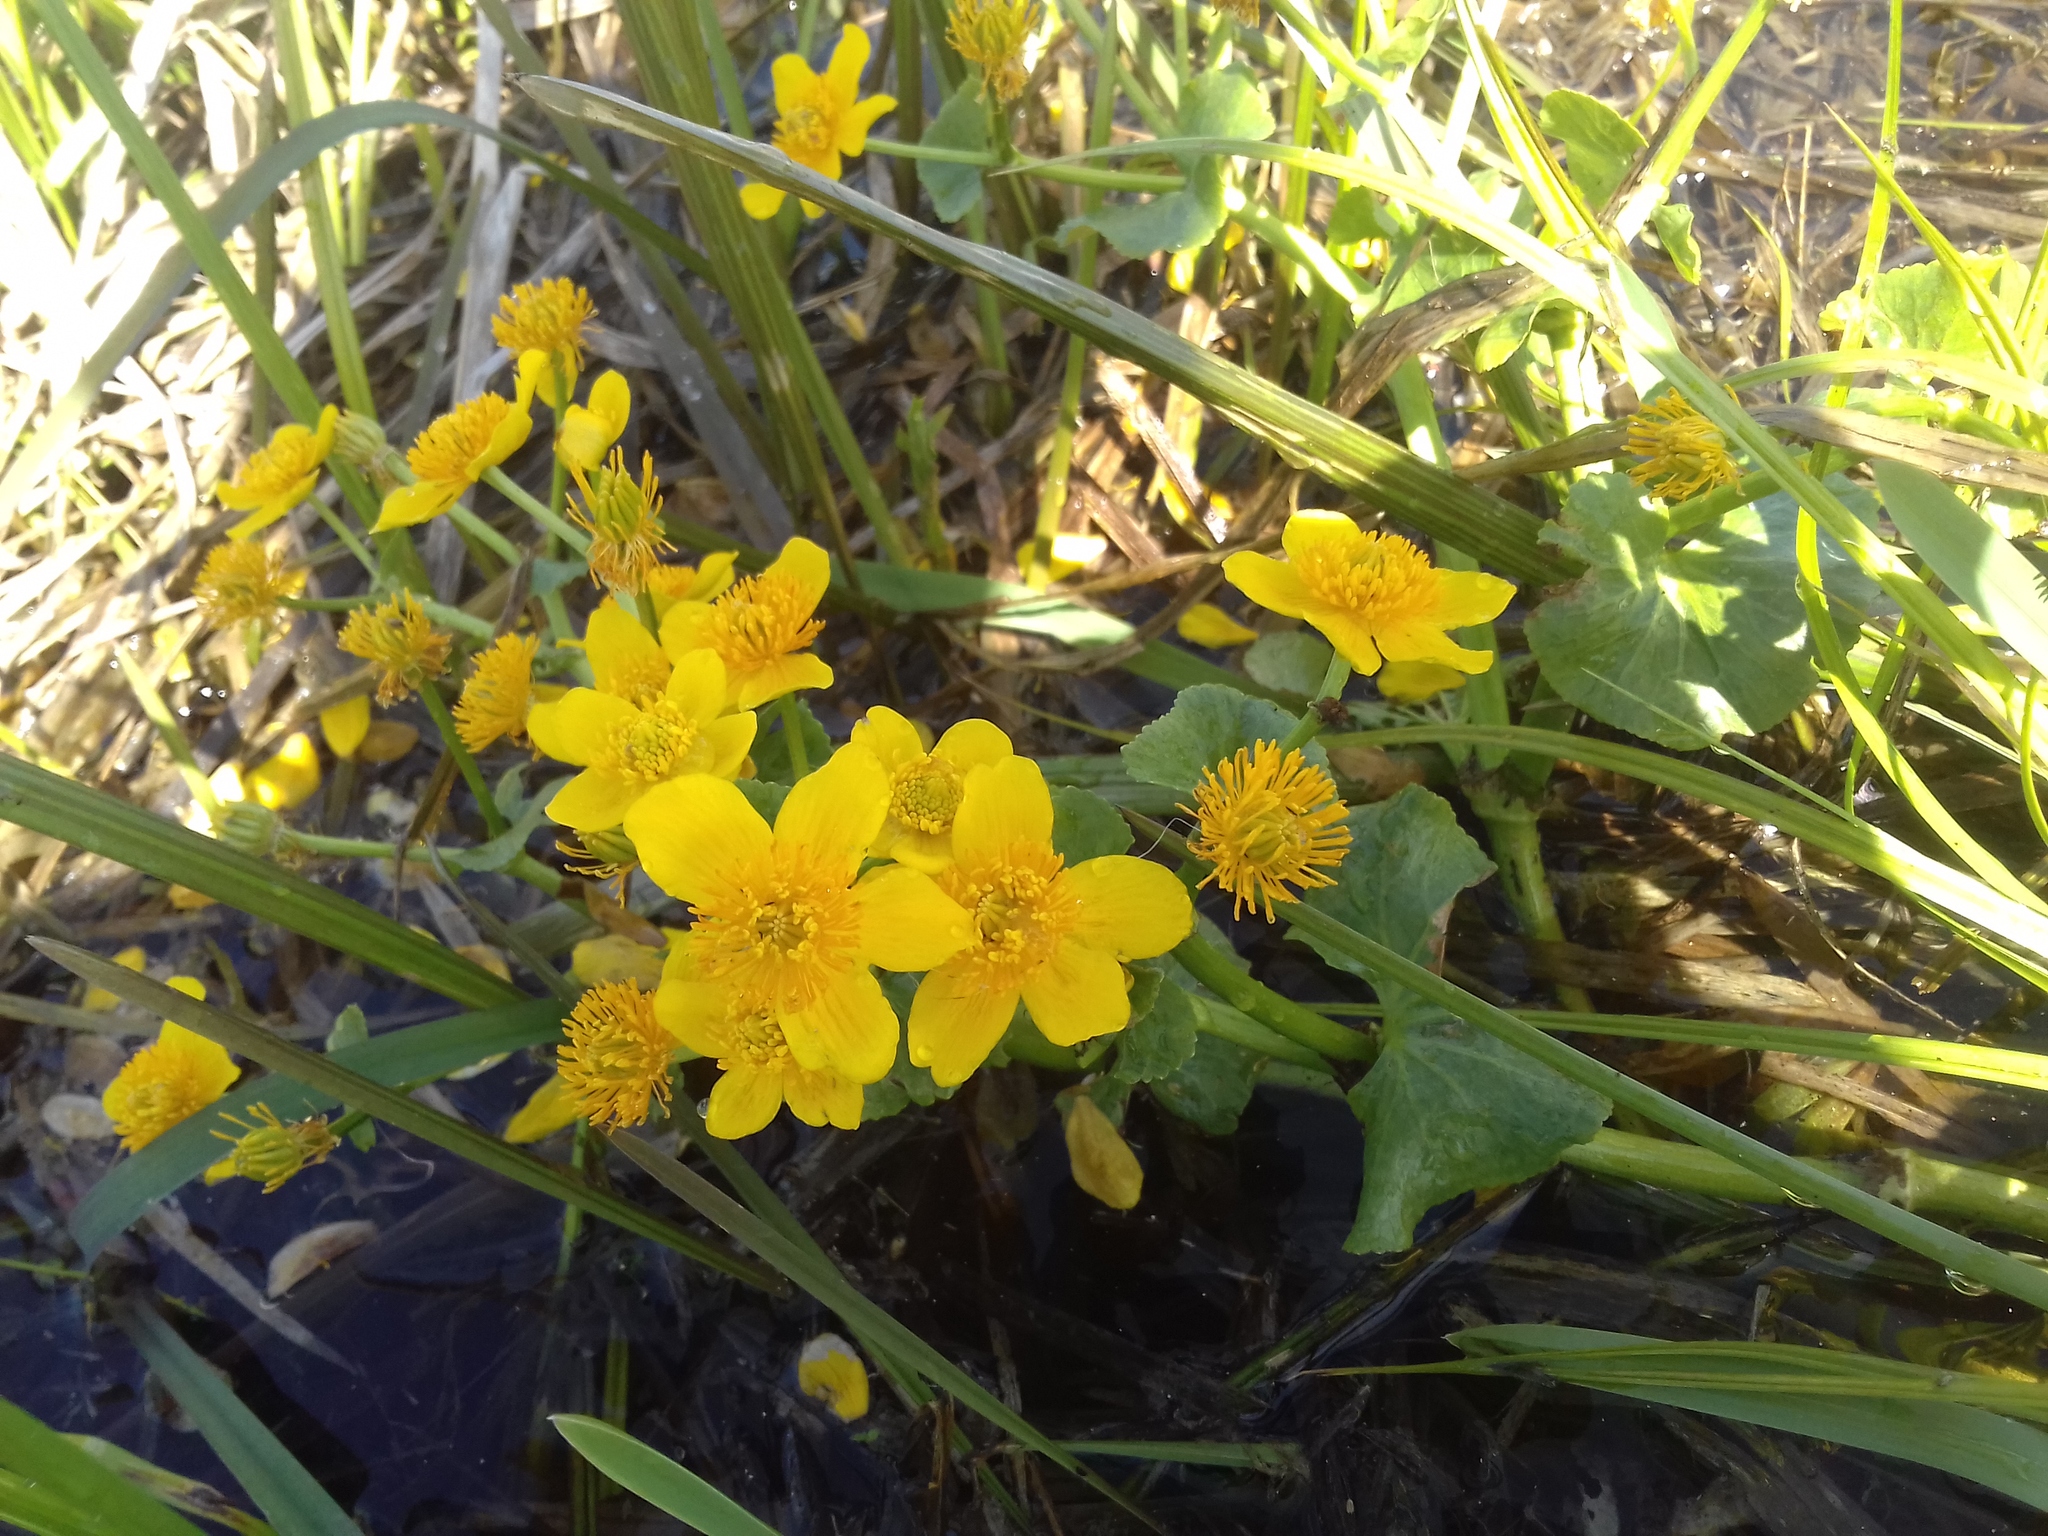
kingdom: Plantae
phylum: Tracheophyta
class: Magnoliopsida
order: Ranunculales
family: Ranunculaceae
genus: Caltha
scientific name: Caltha palustris
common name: Marsh marigold
